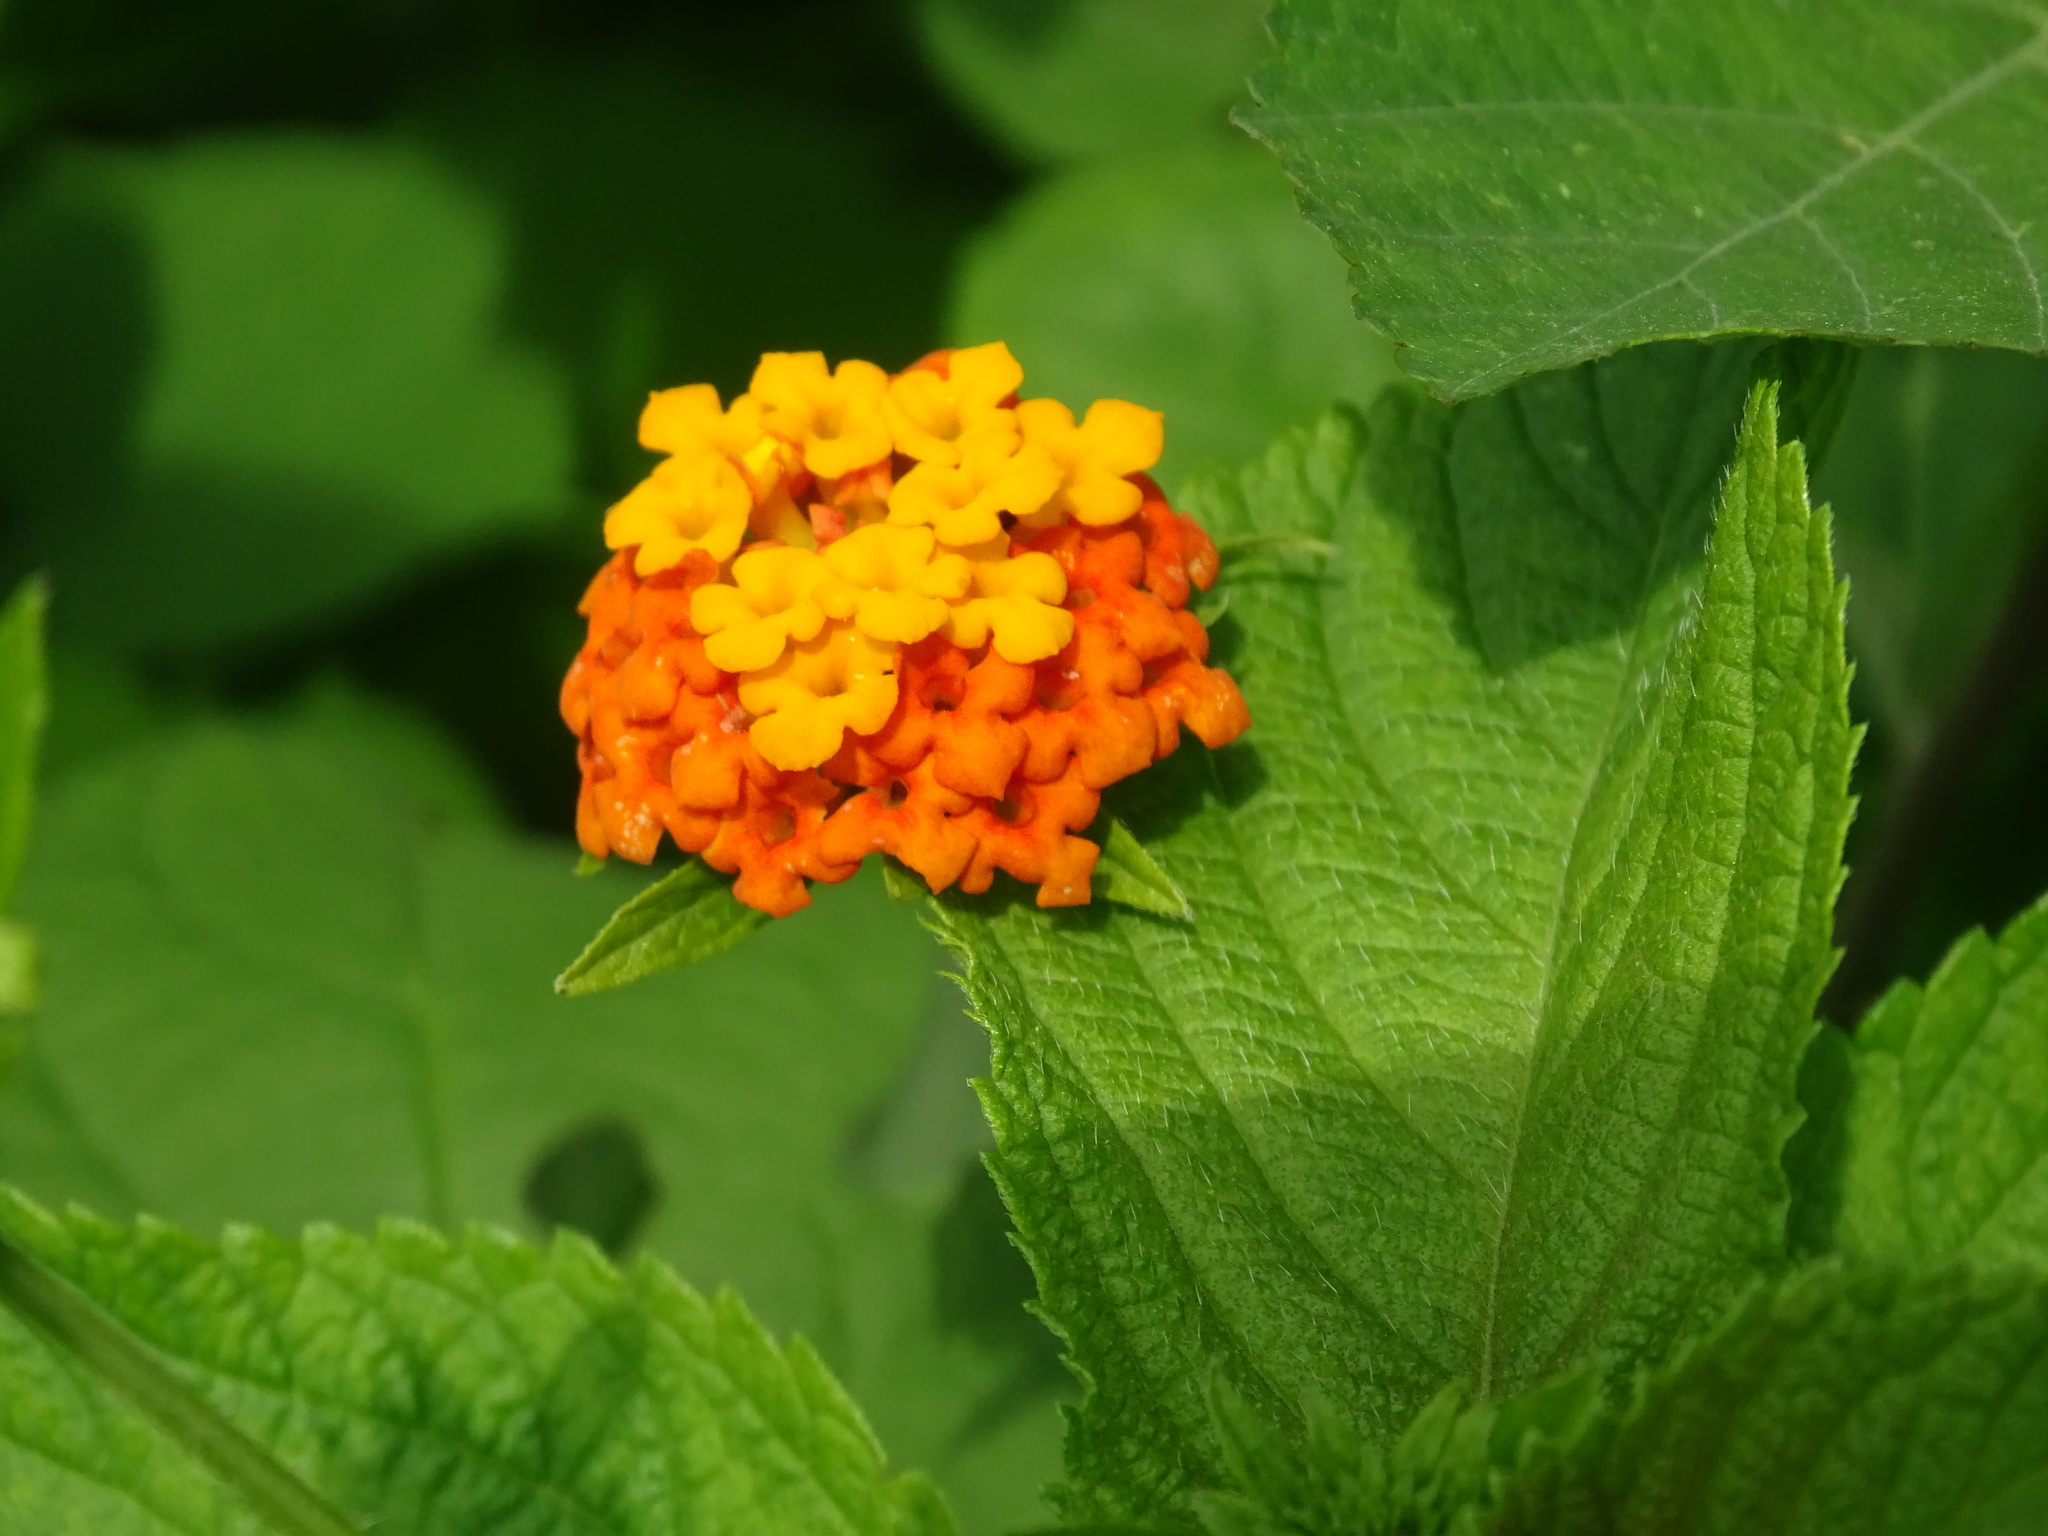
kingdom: Plantae
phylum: Tracheophyta
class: Magnoliopsida
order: Lamiales
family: Verbenaceae
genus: Lantana
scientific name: Lantana camara
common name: Lantana
